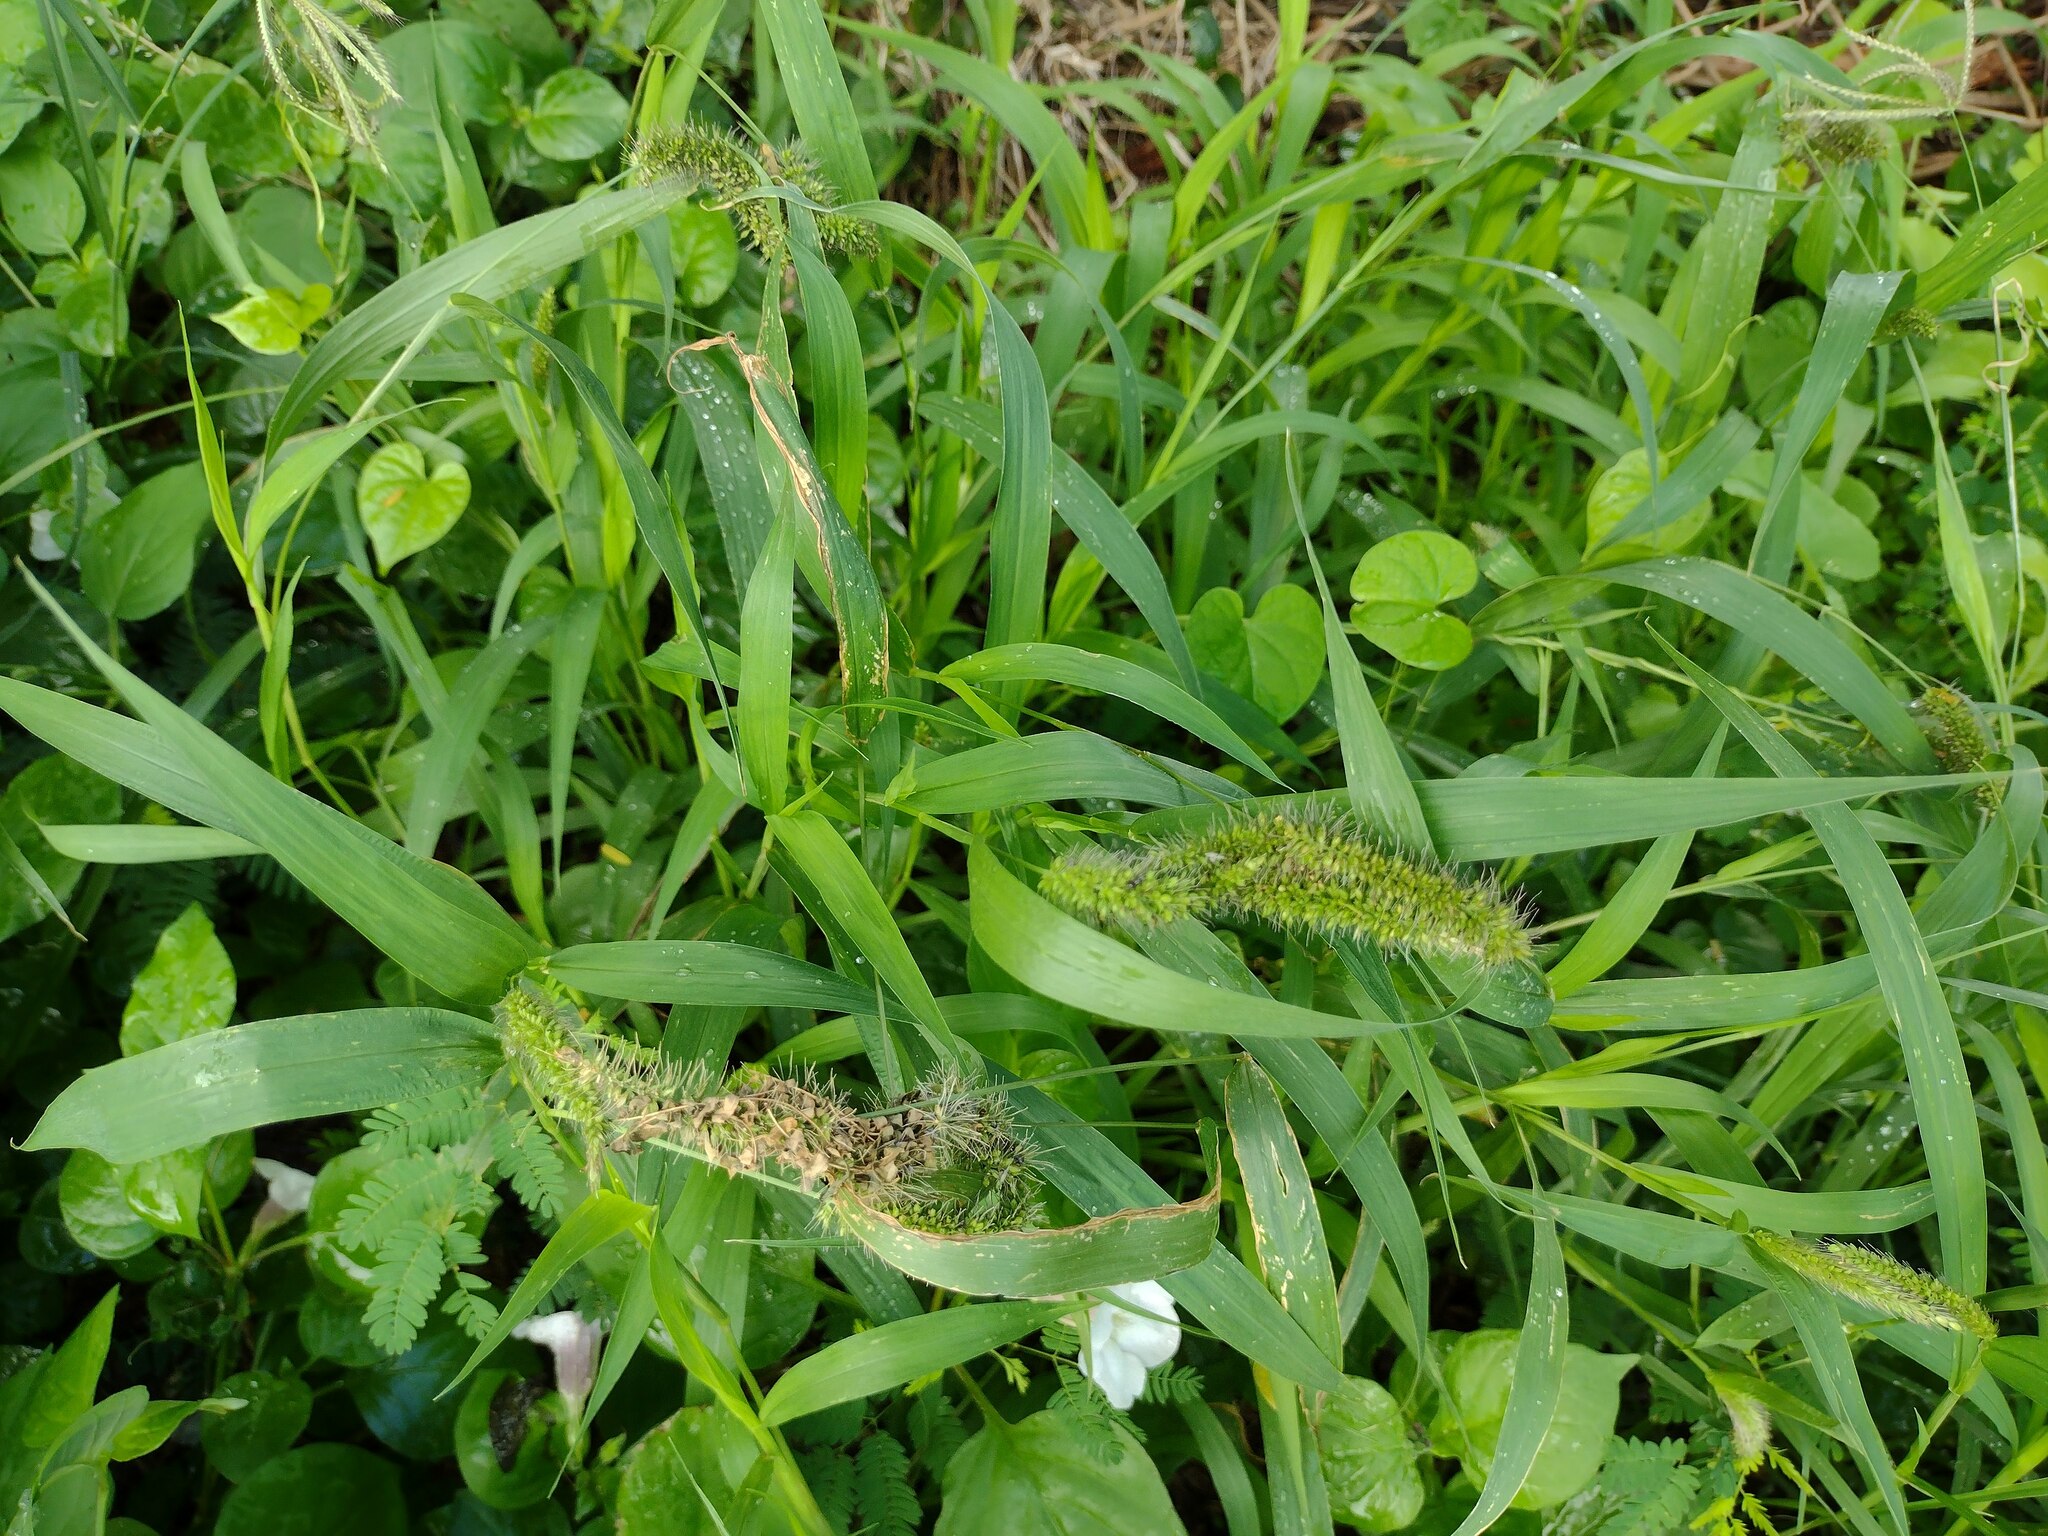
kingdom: Plantae
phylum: Tracheophyta
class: Liliopsida
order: Poales
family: Poaceae
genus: Setaria
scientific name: Setaria adhaerens
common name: Adherent bristle-grass
